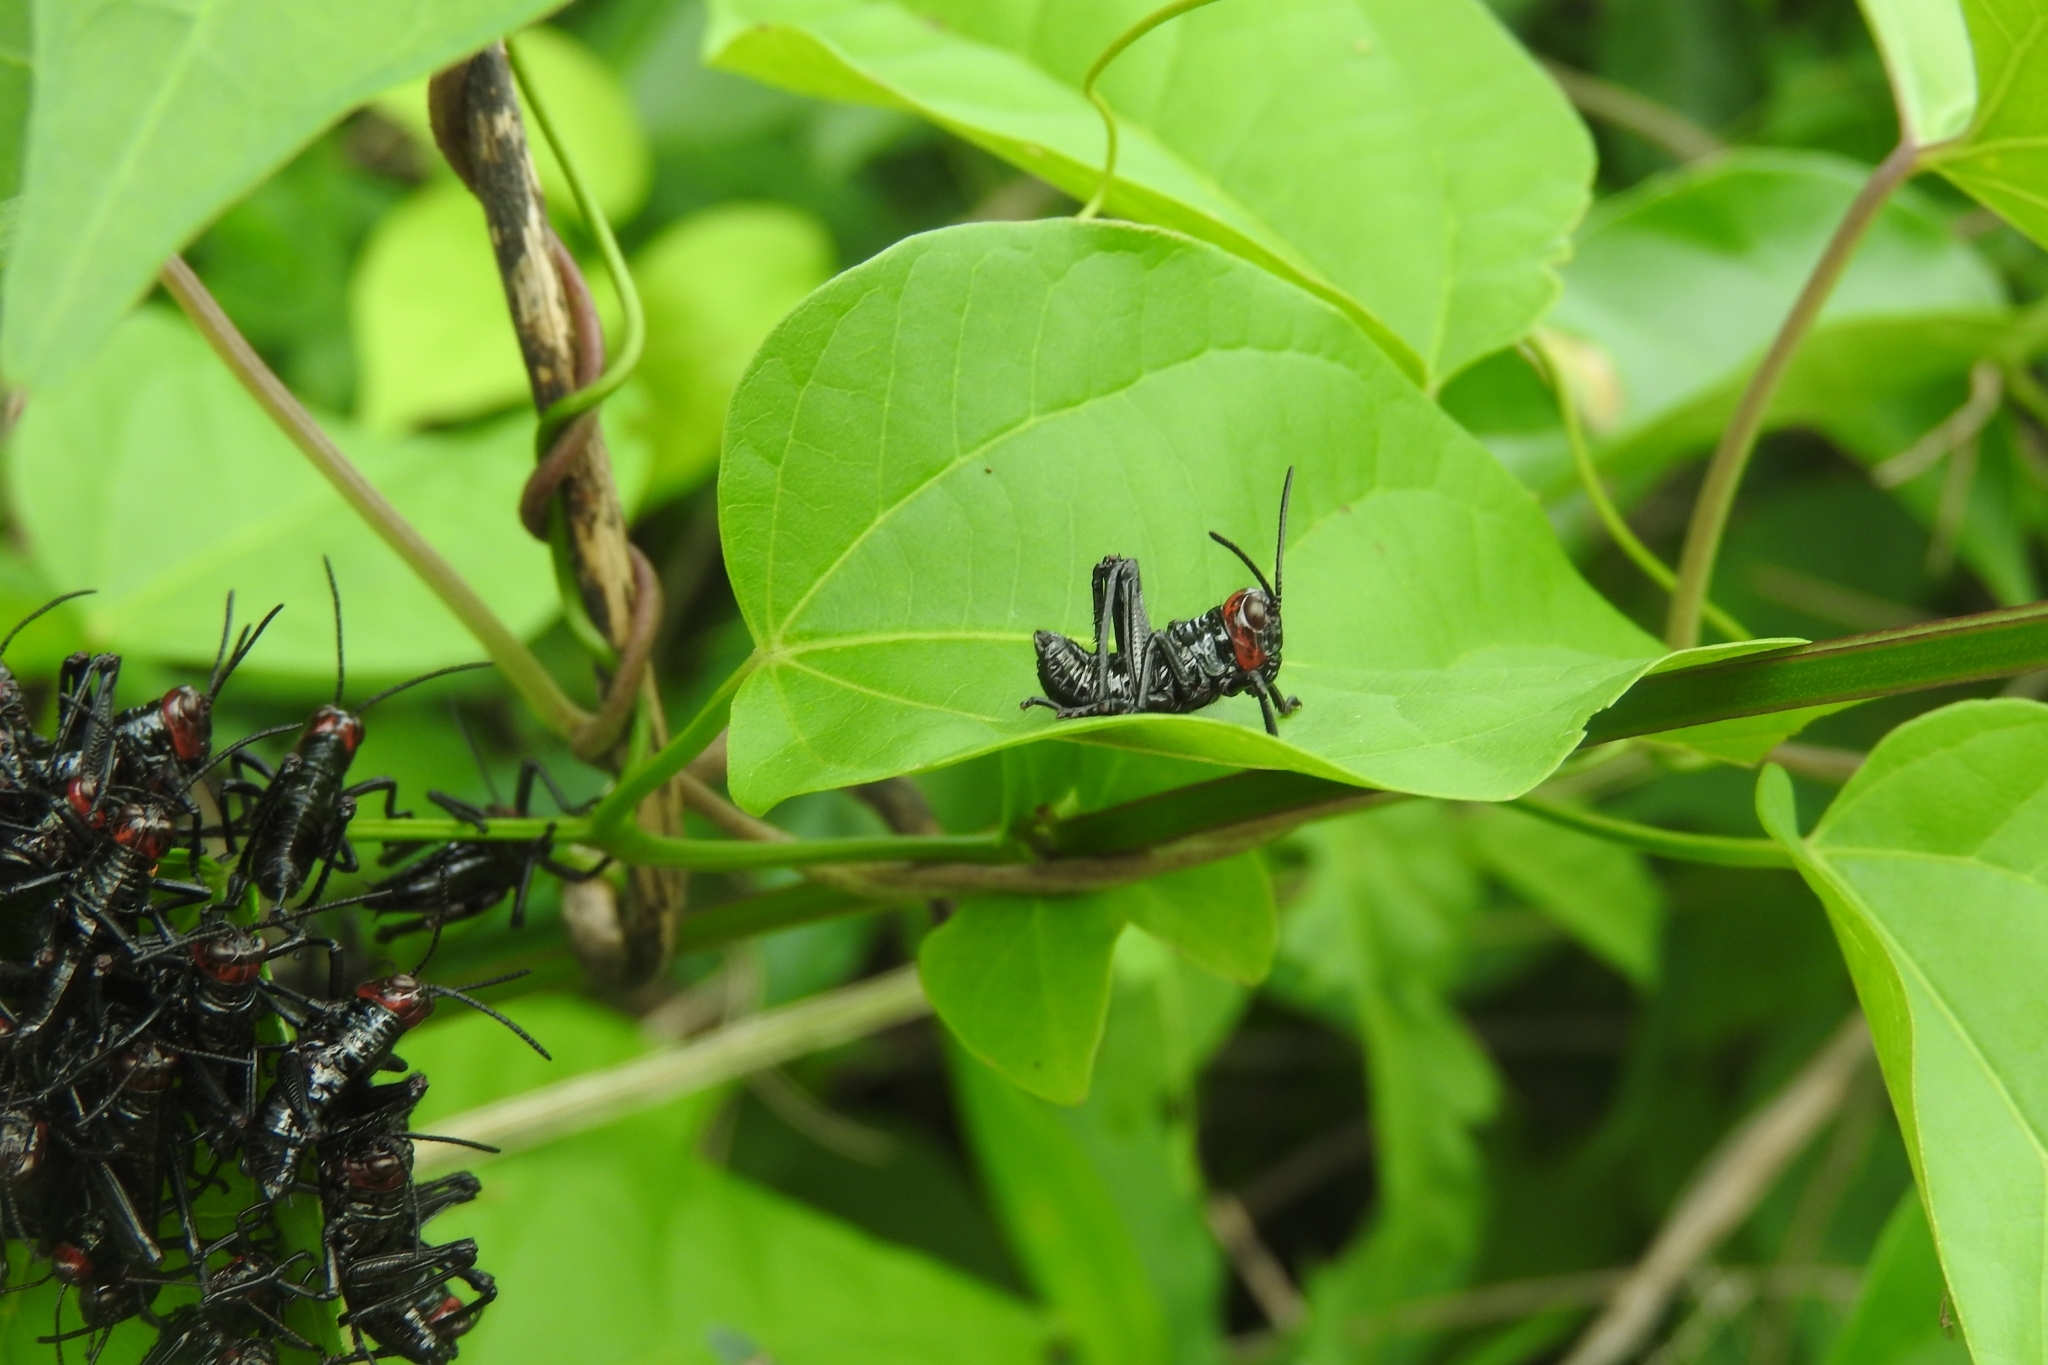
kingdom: Animalia
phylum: Arthropoda
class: Insecta
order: Orthoptera
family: Romaleidae
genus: Chromacris
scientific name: Chromacris miles
